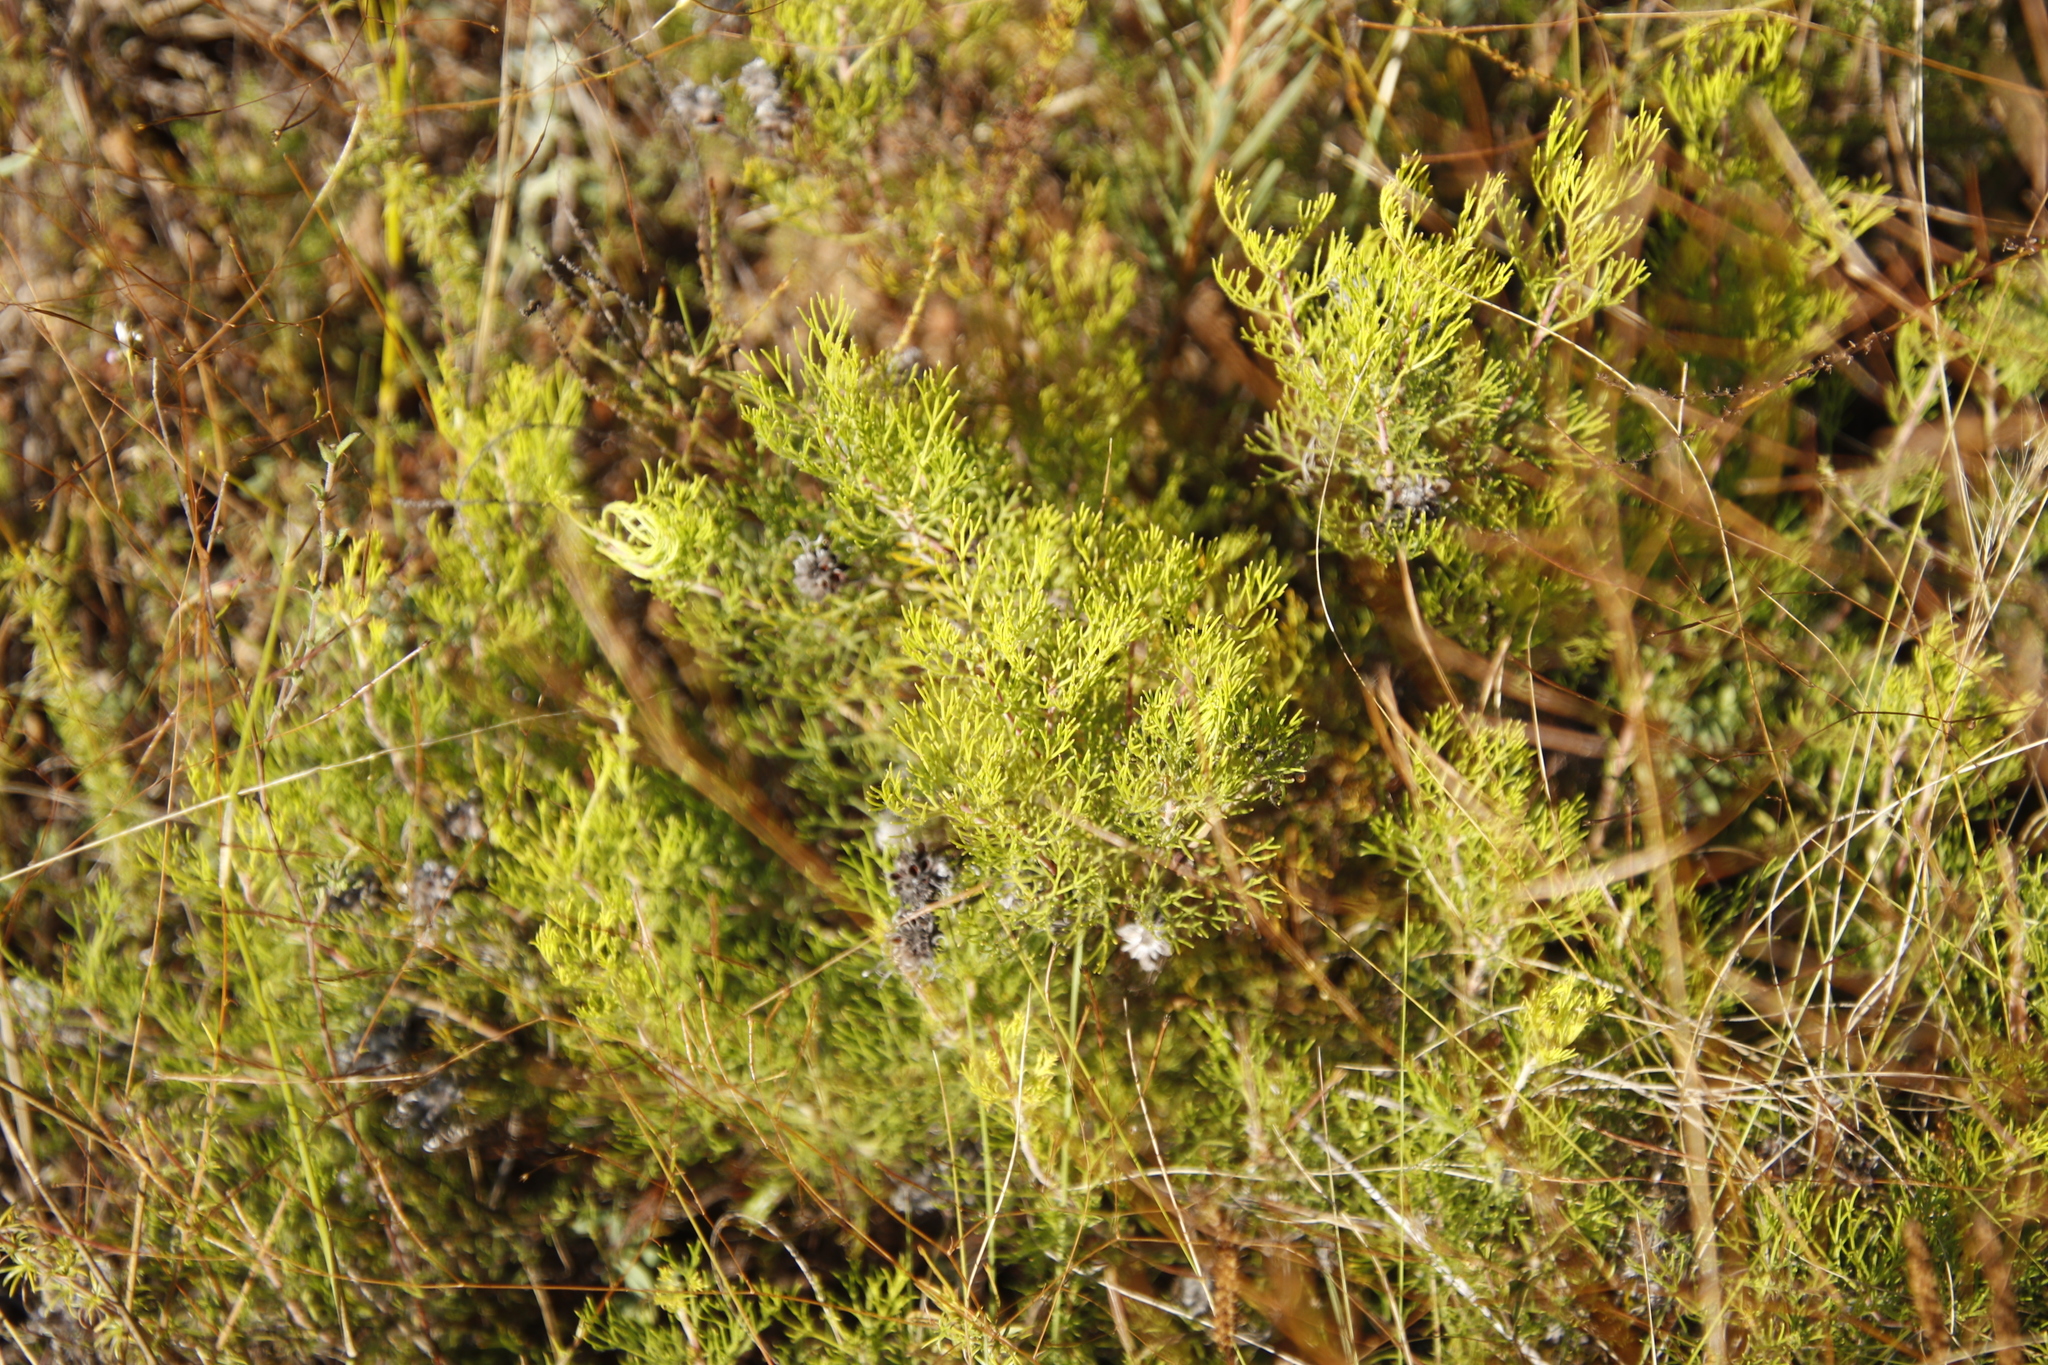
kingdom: Plantae
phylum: Tracheophyta
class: Magnoliopsida
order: Proteales
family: Proteaceae
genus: Serruria
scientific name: Serruria gremialis
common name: Riviersonderend spiderhead
